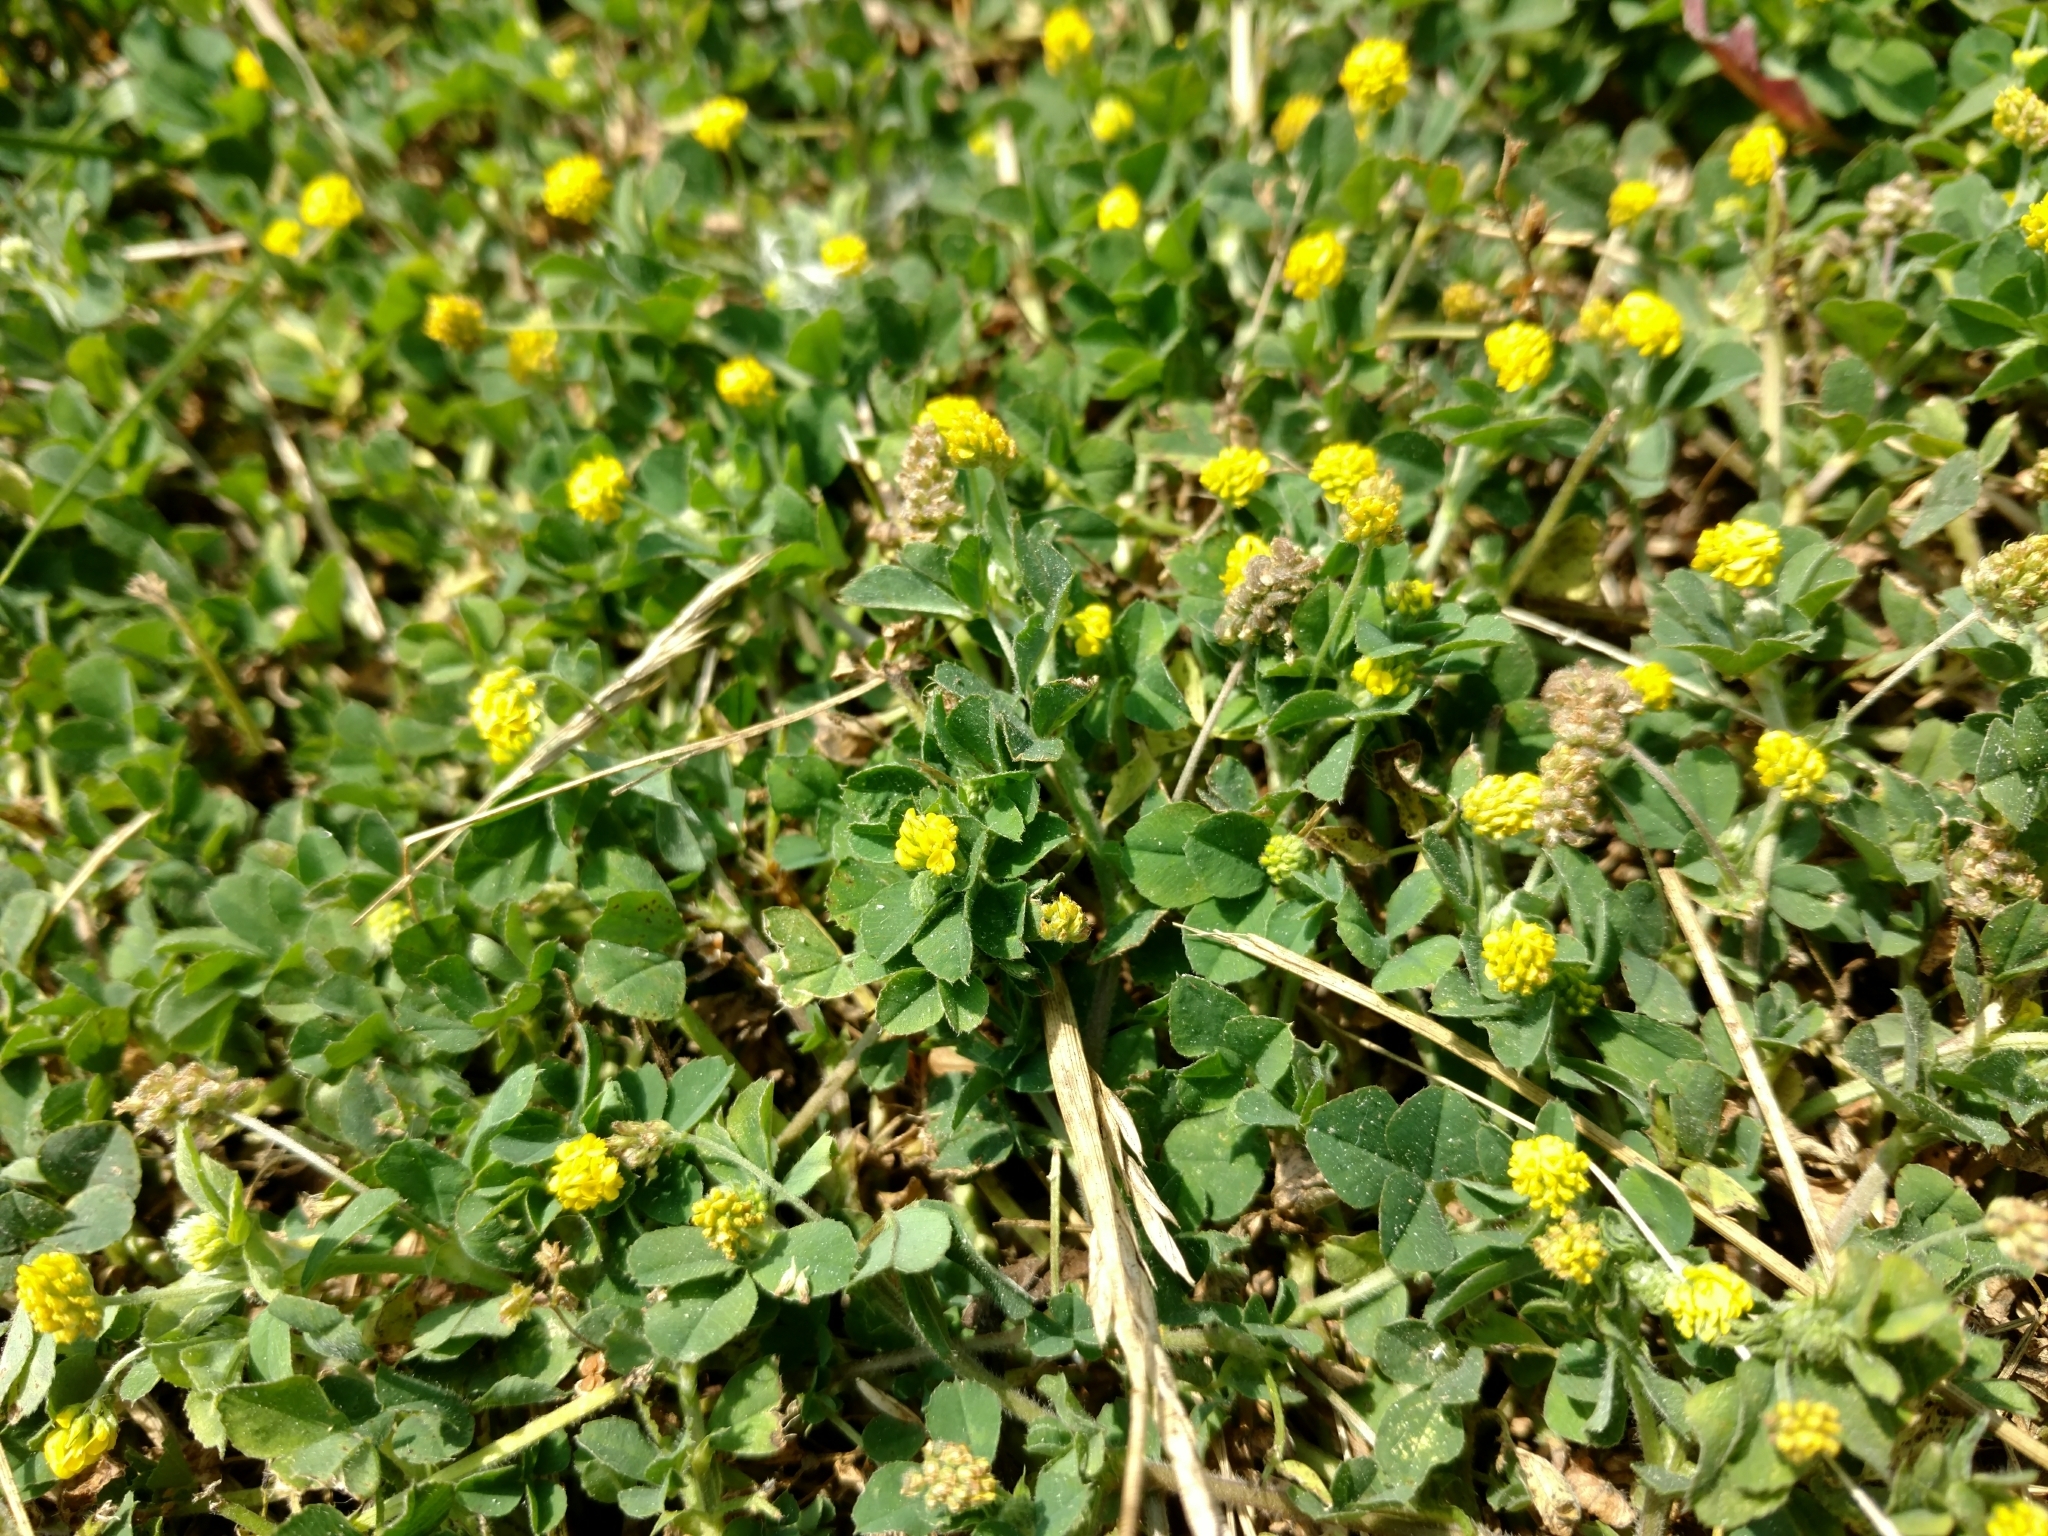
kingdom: Plantae
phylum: Tracheophyta
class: Magnoliopsida
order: Fabales
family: Fabaceae
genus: Medicago
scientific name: Medicago lupulina
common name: Black medick
